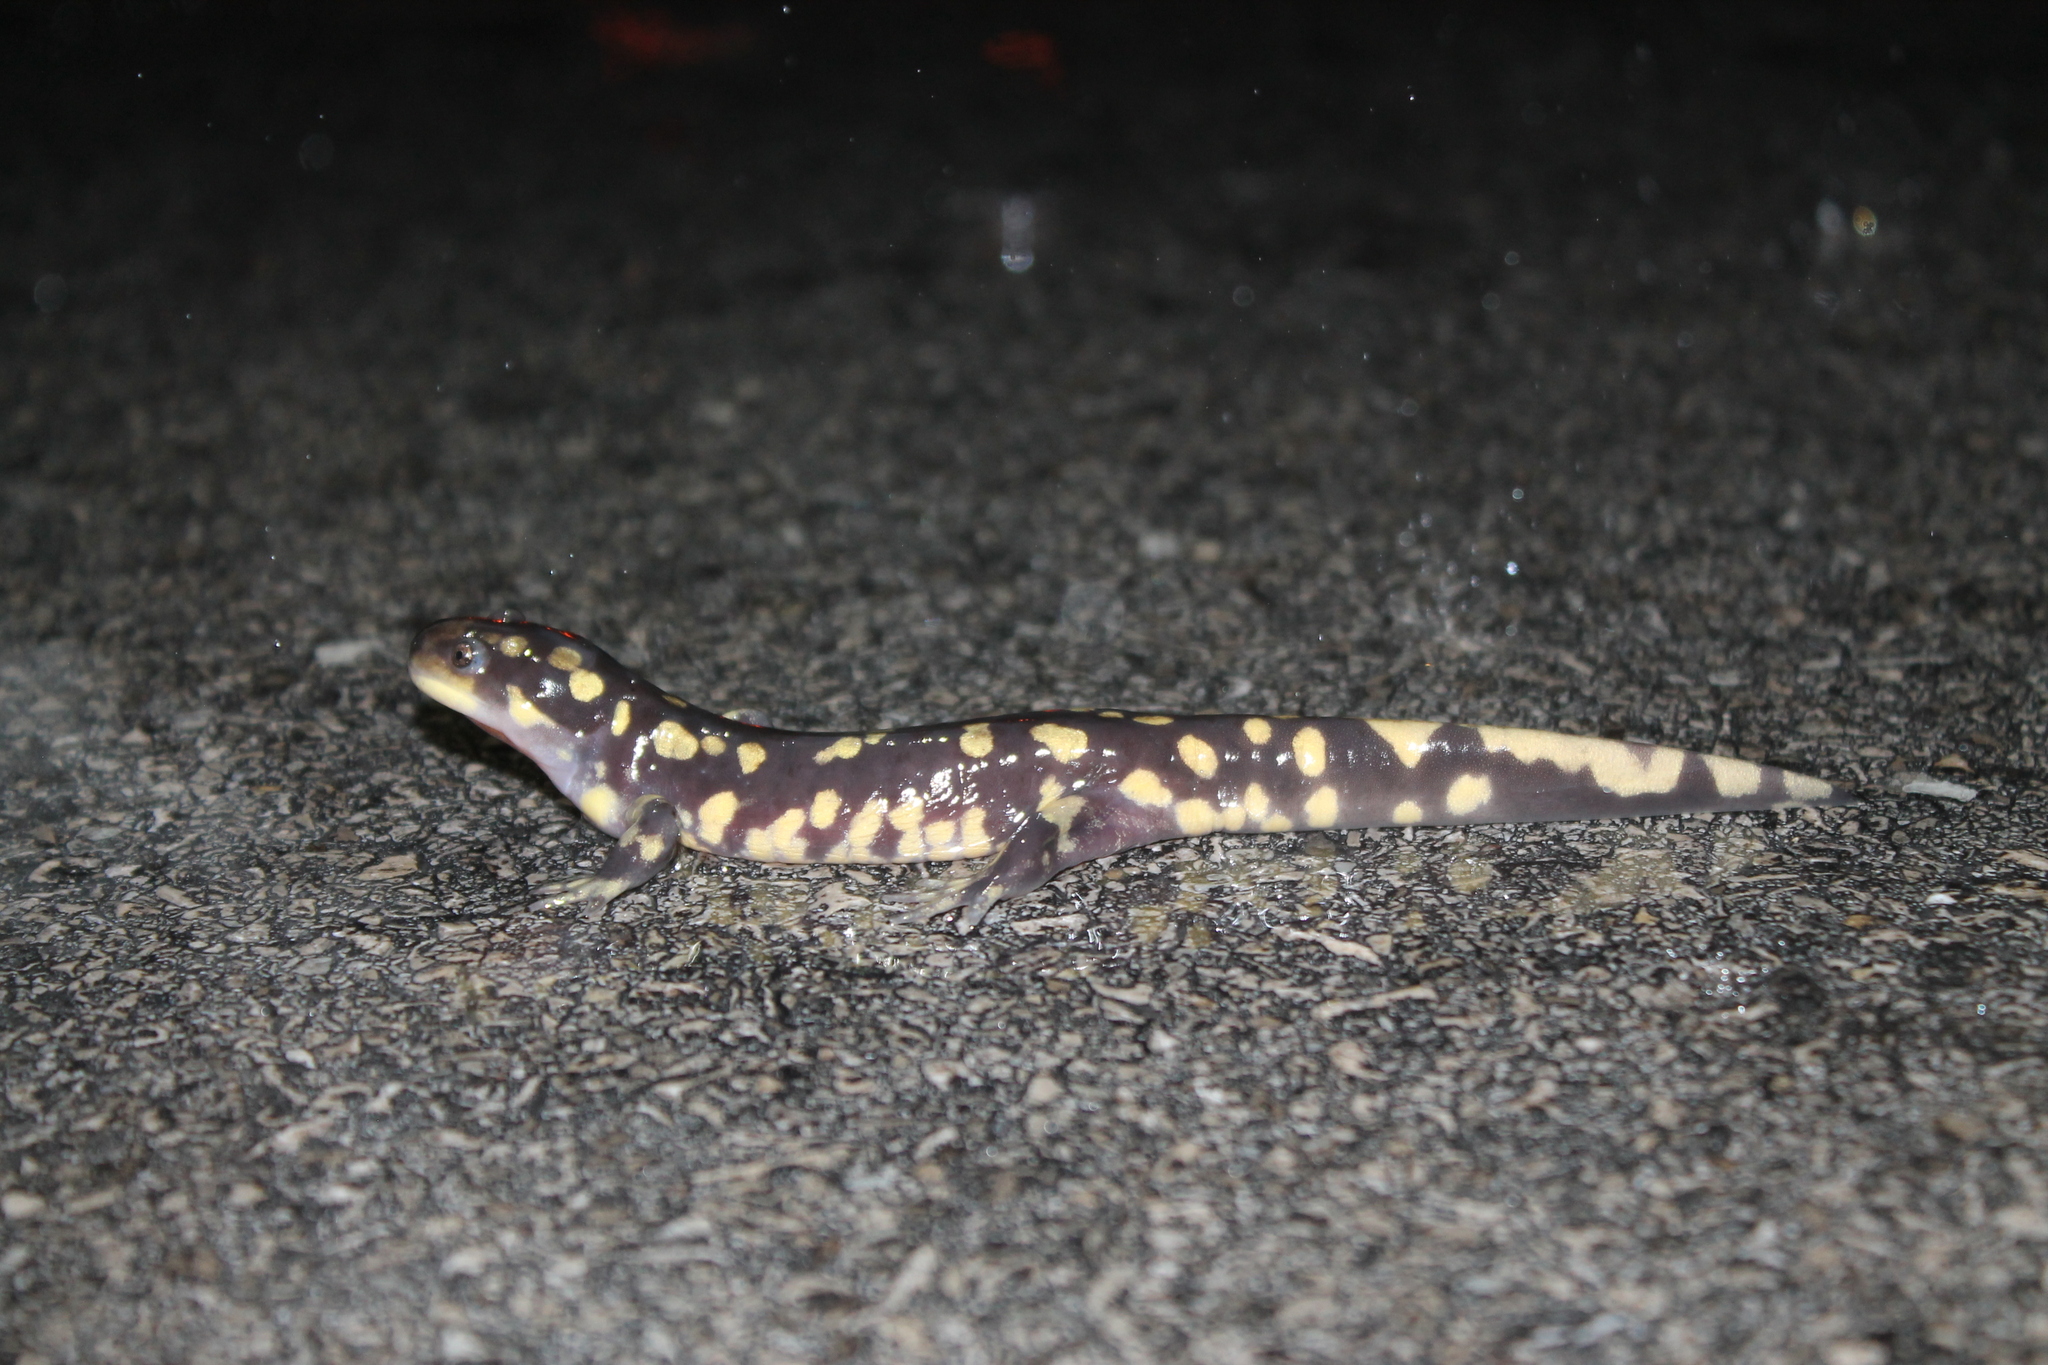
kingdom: Animalia
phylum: Chordata
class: Amphibia
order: Caudata
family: Ambystomatidae
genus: Ambystoma
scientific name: Ambystoma tigrinum
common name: Tiger salamander
